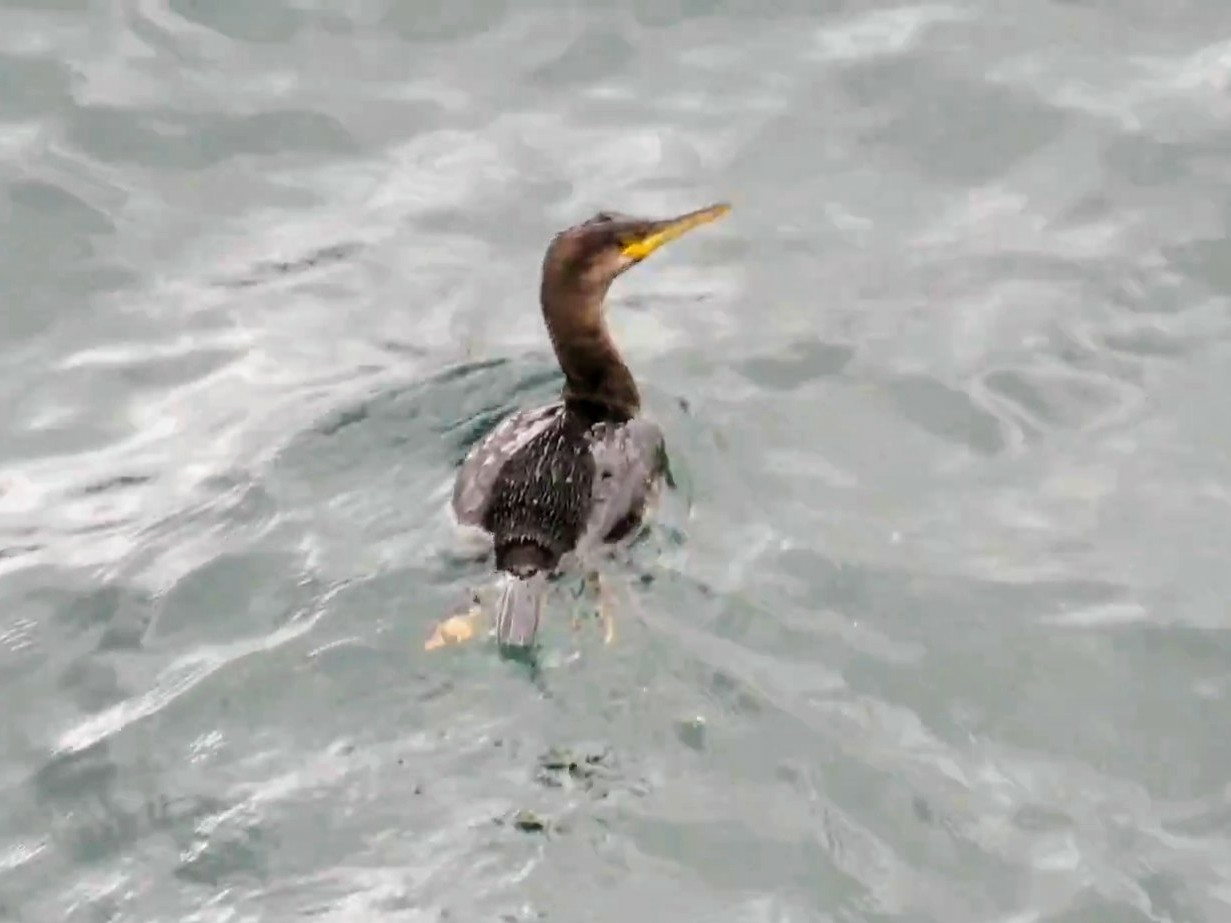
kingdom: Animalia
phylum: Chordata
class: Aves
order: Suliformes
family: Phalacrocoracidae
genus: Phalacrocorax
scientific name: Phalacrocorax aristotelis
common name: European shag
